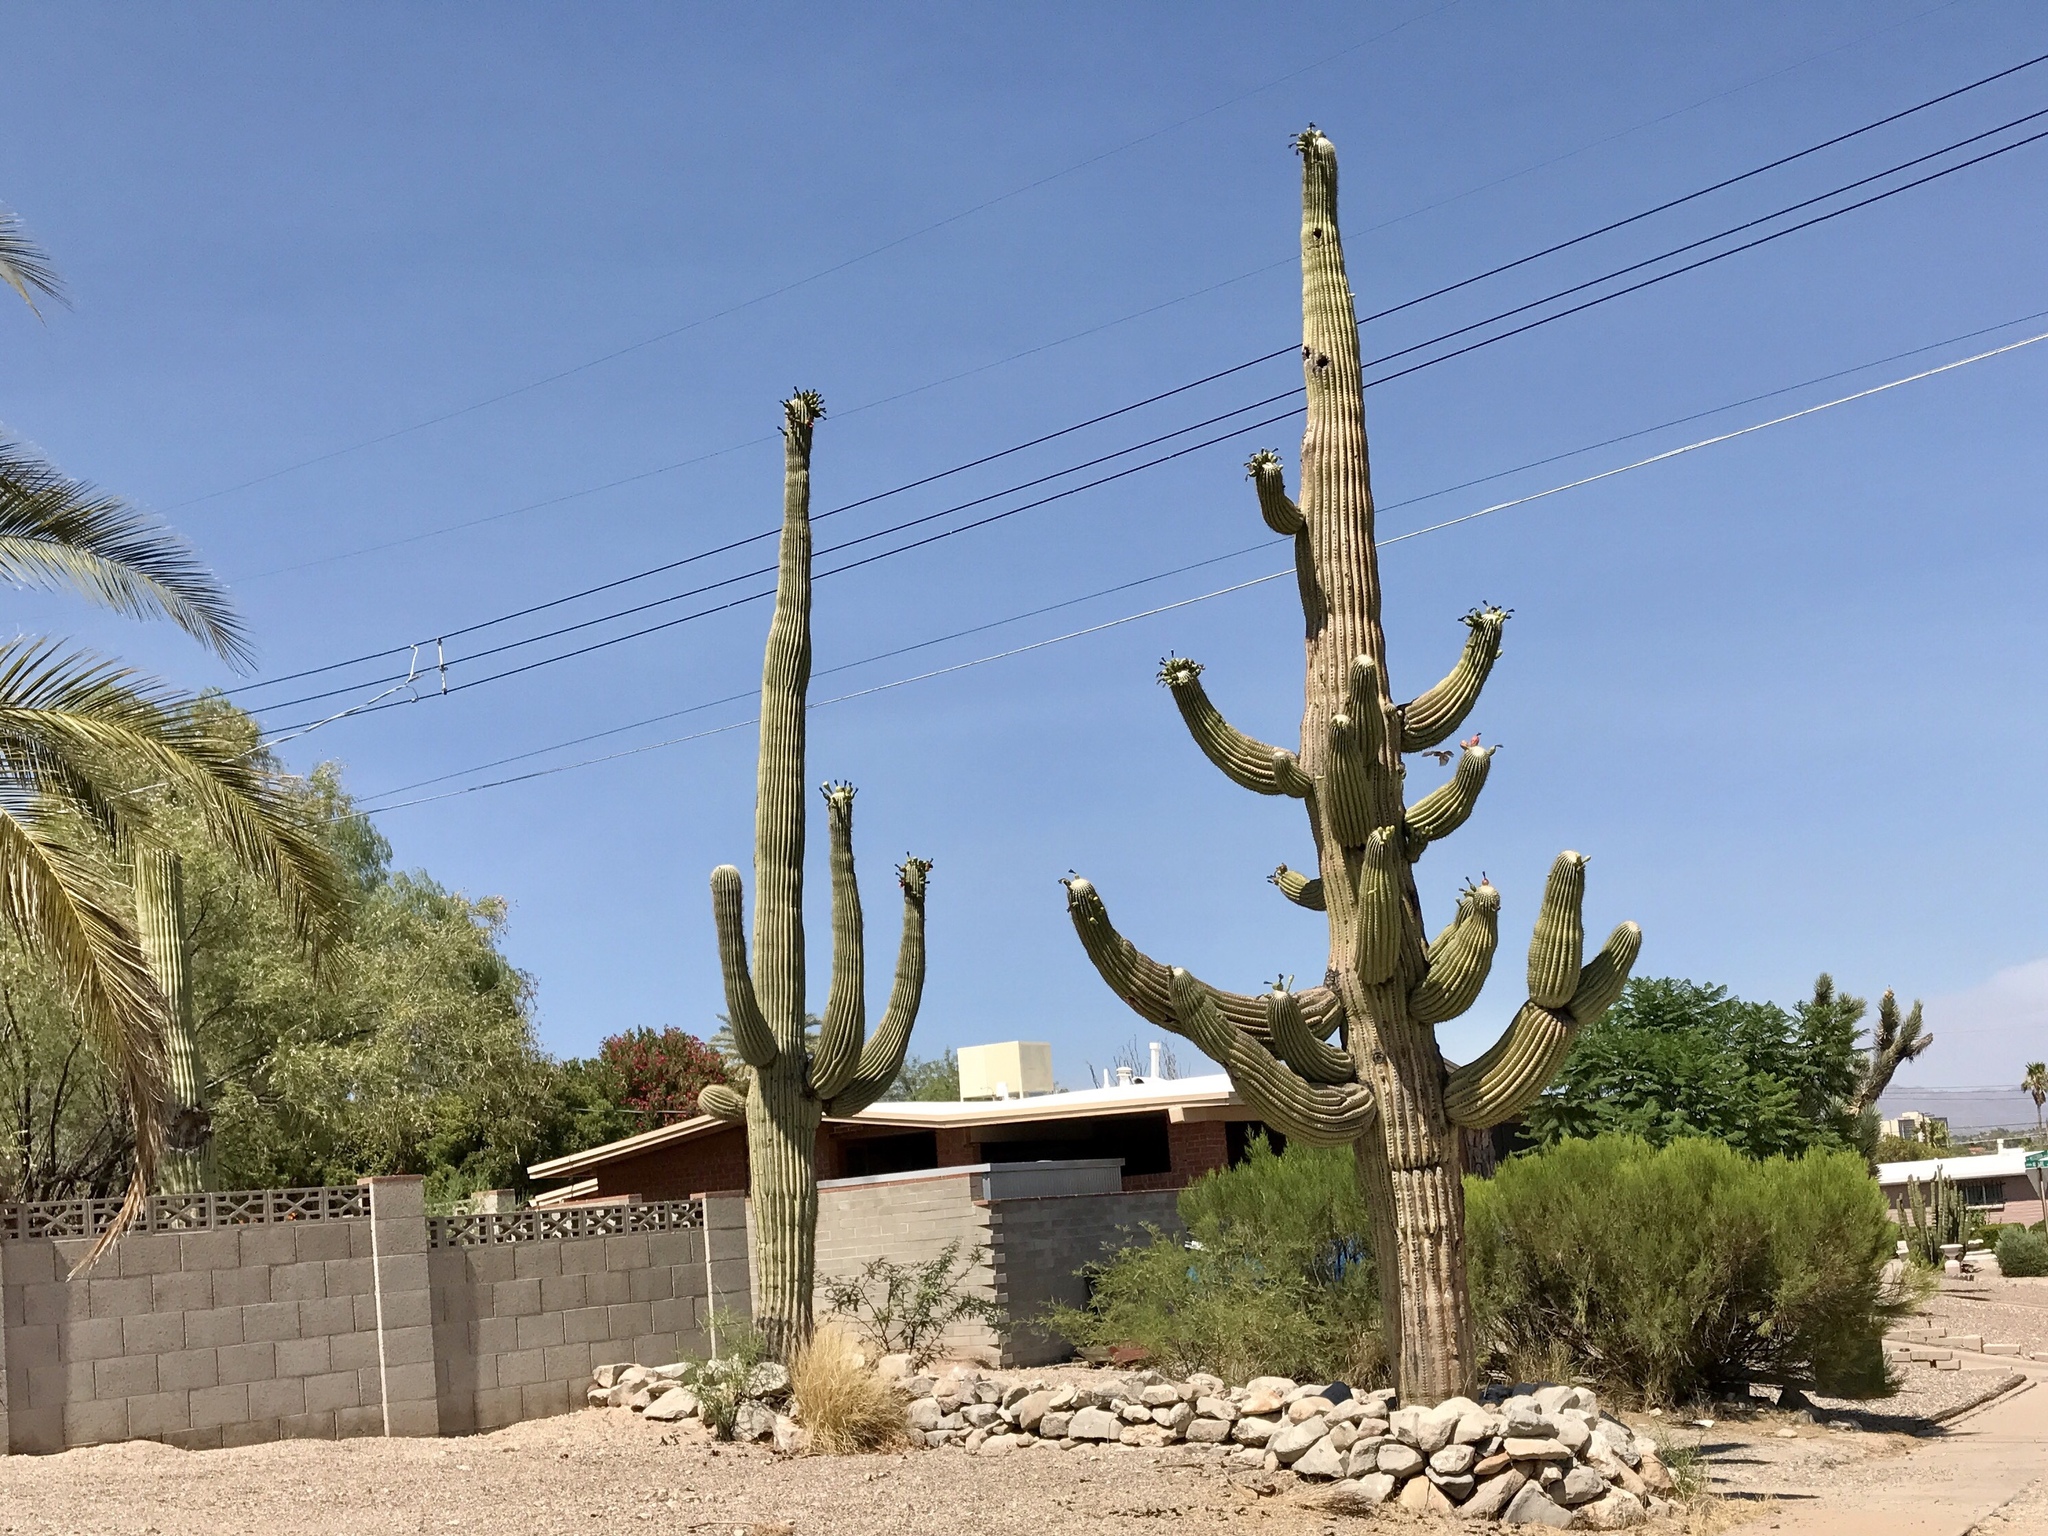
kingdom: Plantae
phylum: Tracheophyta
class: Magnoliopsida
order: Caryophyllales
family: Cactaceae
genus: Carnegiea
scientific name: Carnegiea gigantea
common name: Saguaro
